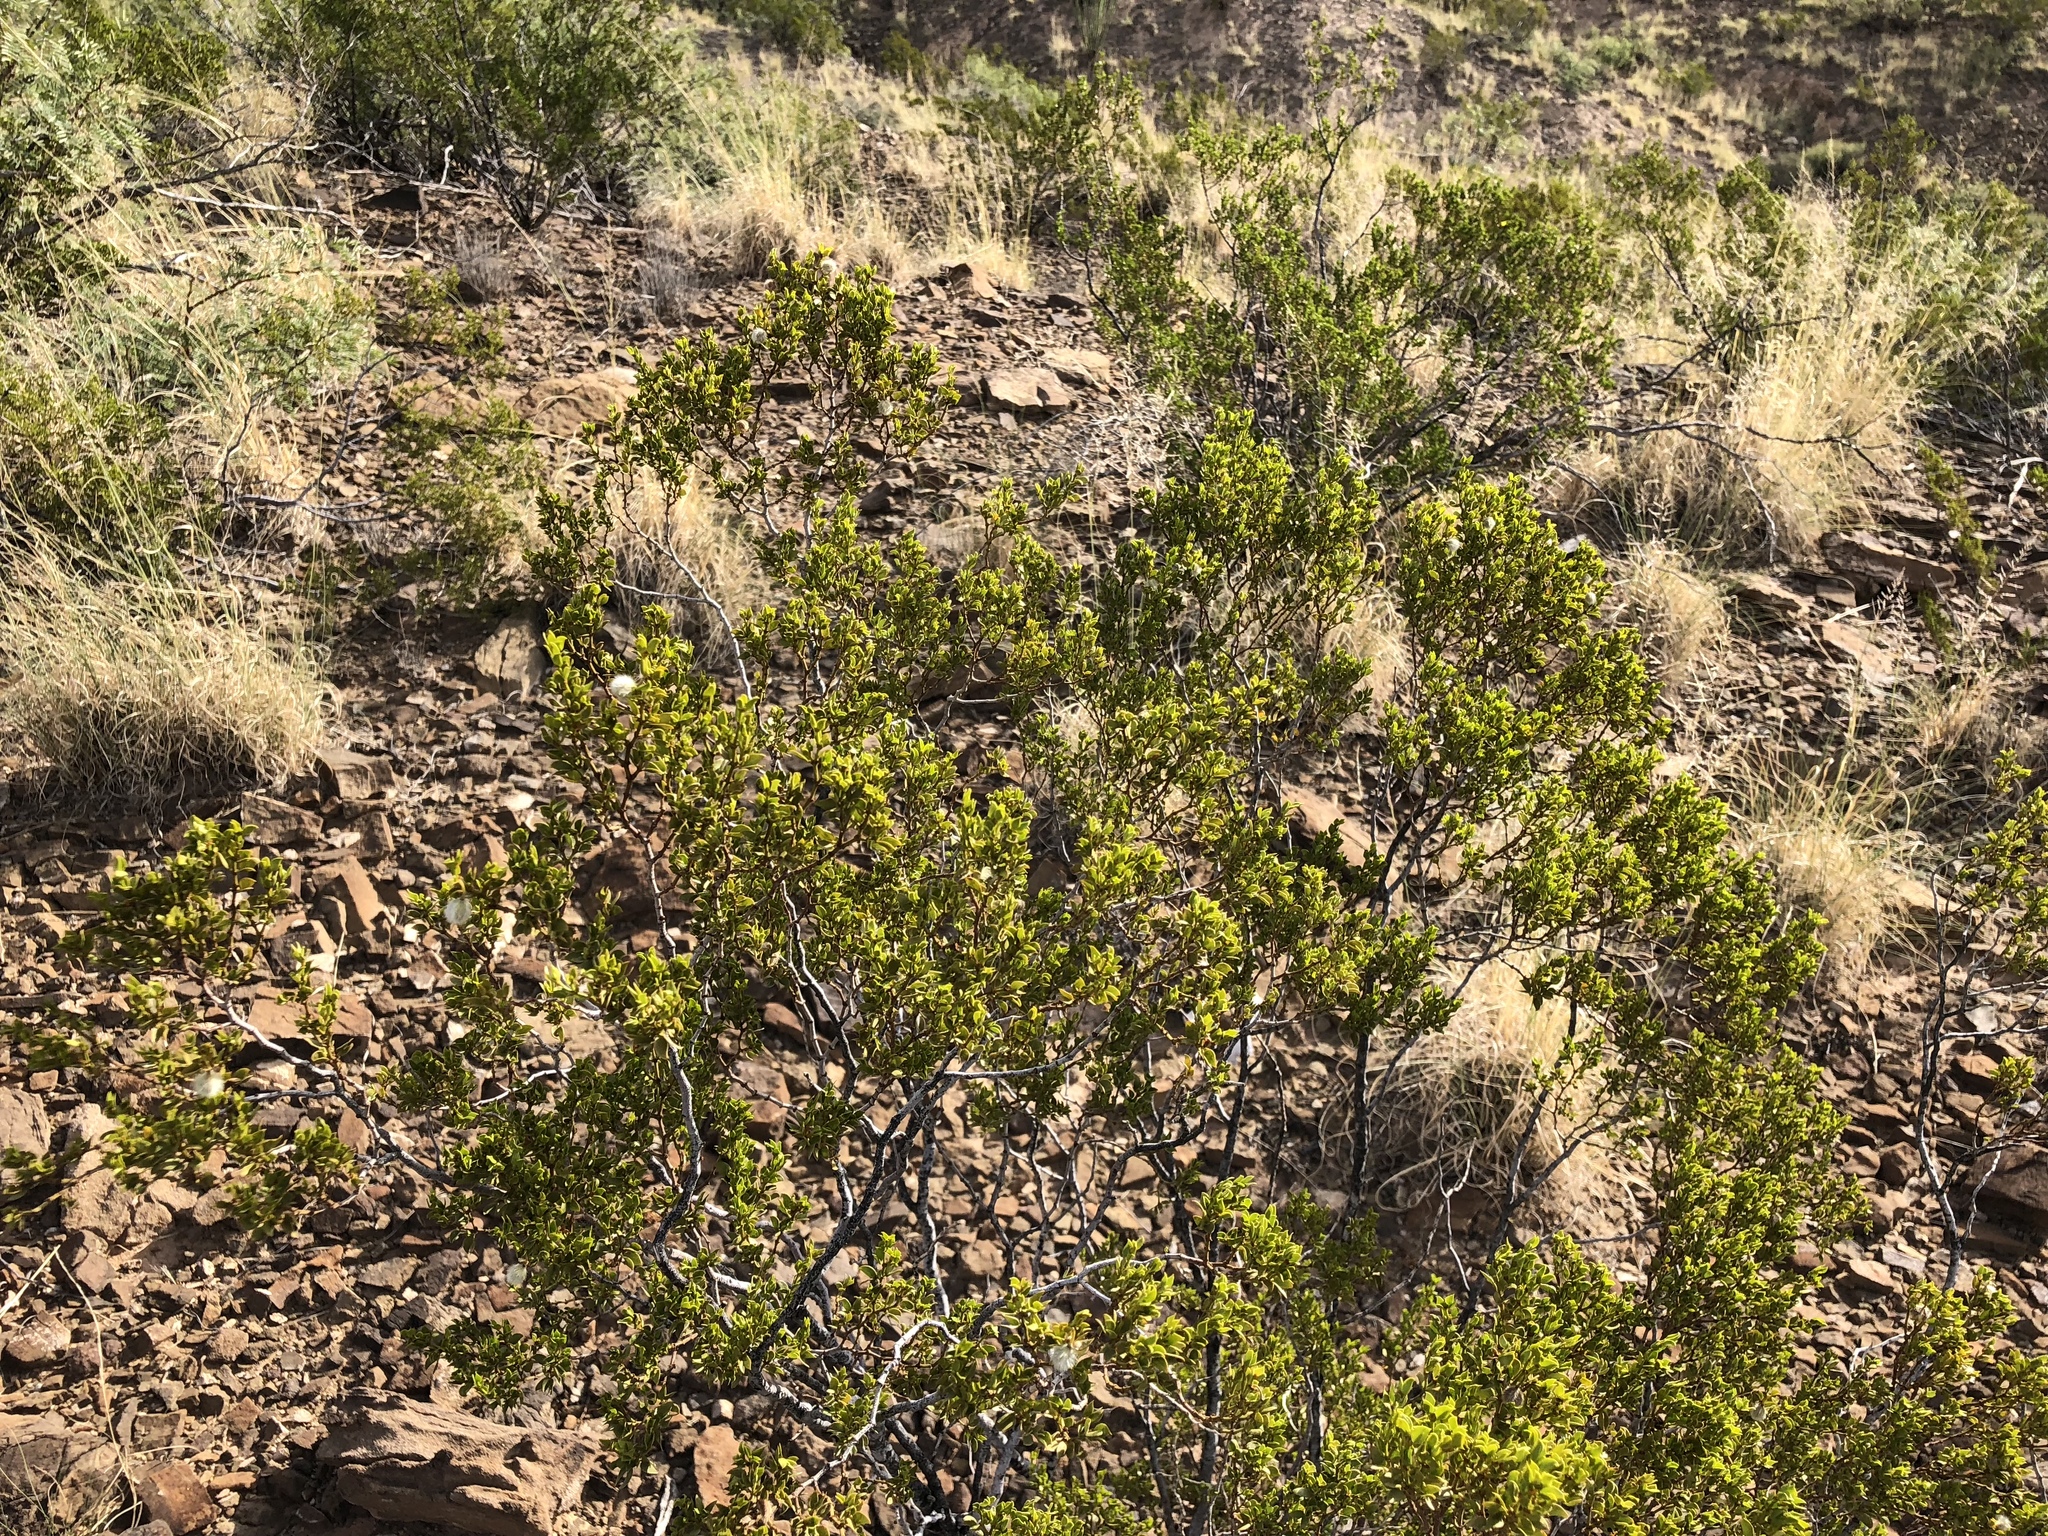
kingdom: Plantae
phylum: Tracheophyta
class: Magnoliopsida
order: Zygophyllales
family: Zygophyllaceae
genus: Larrea
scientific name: Larrea tridentata
